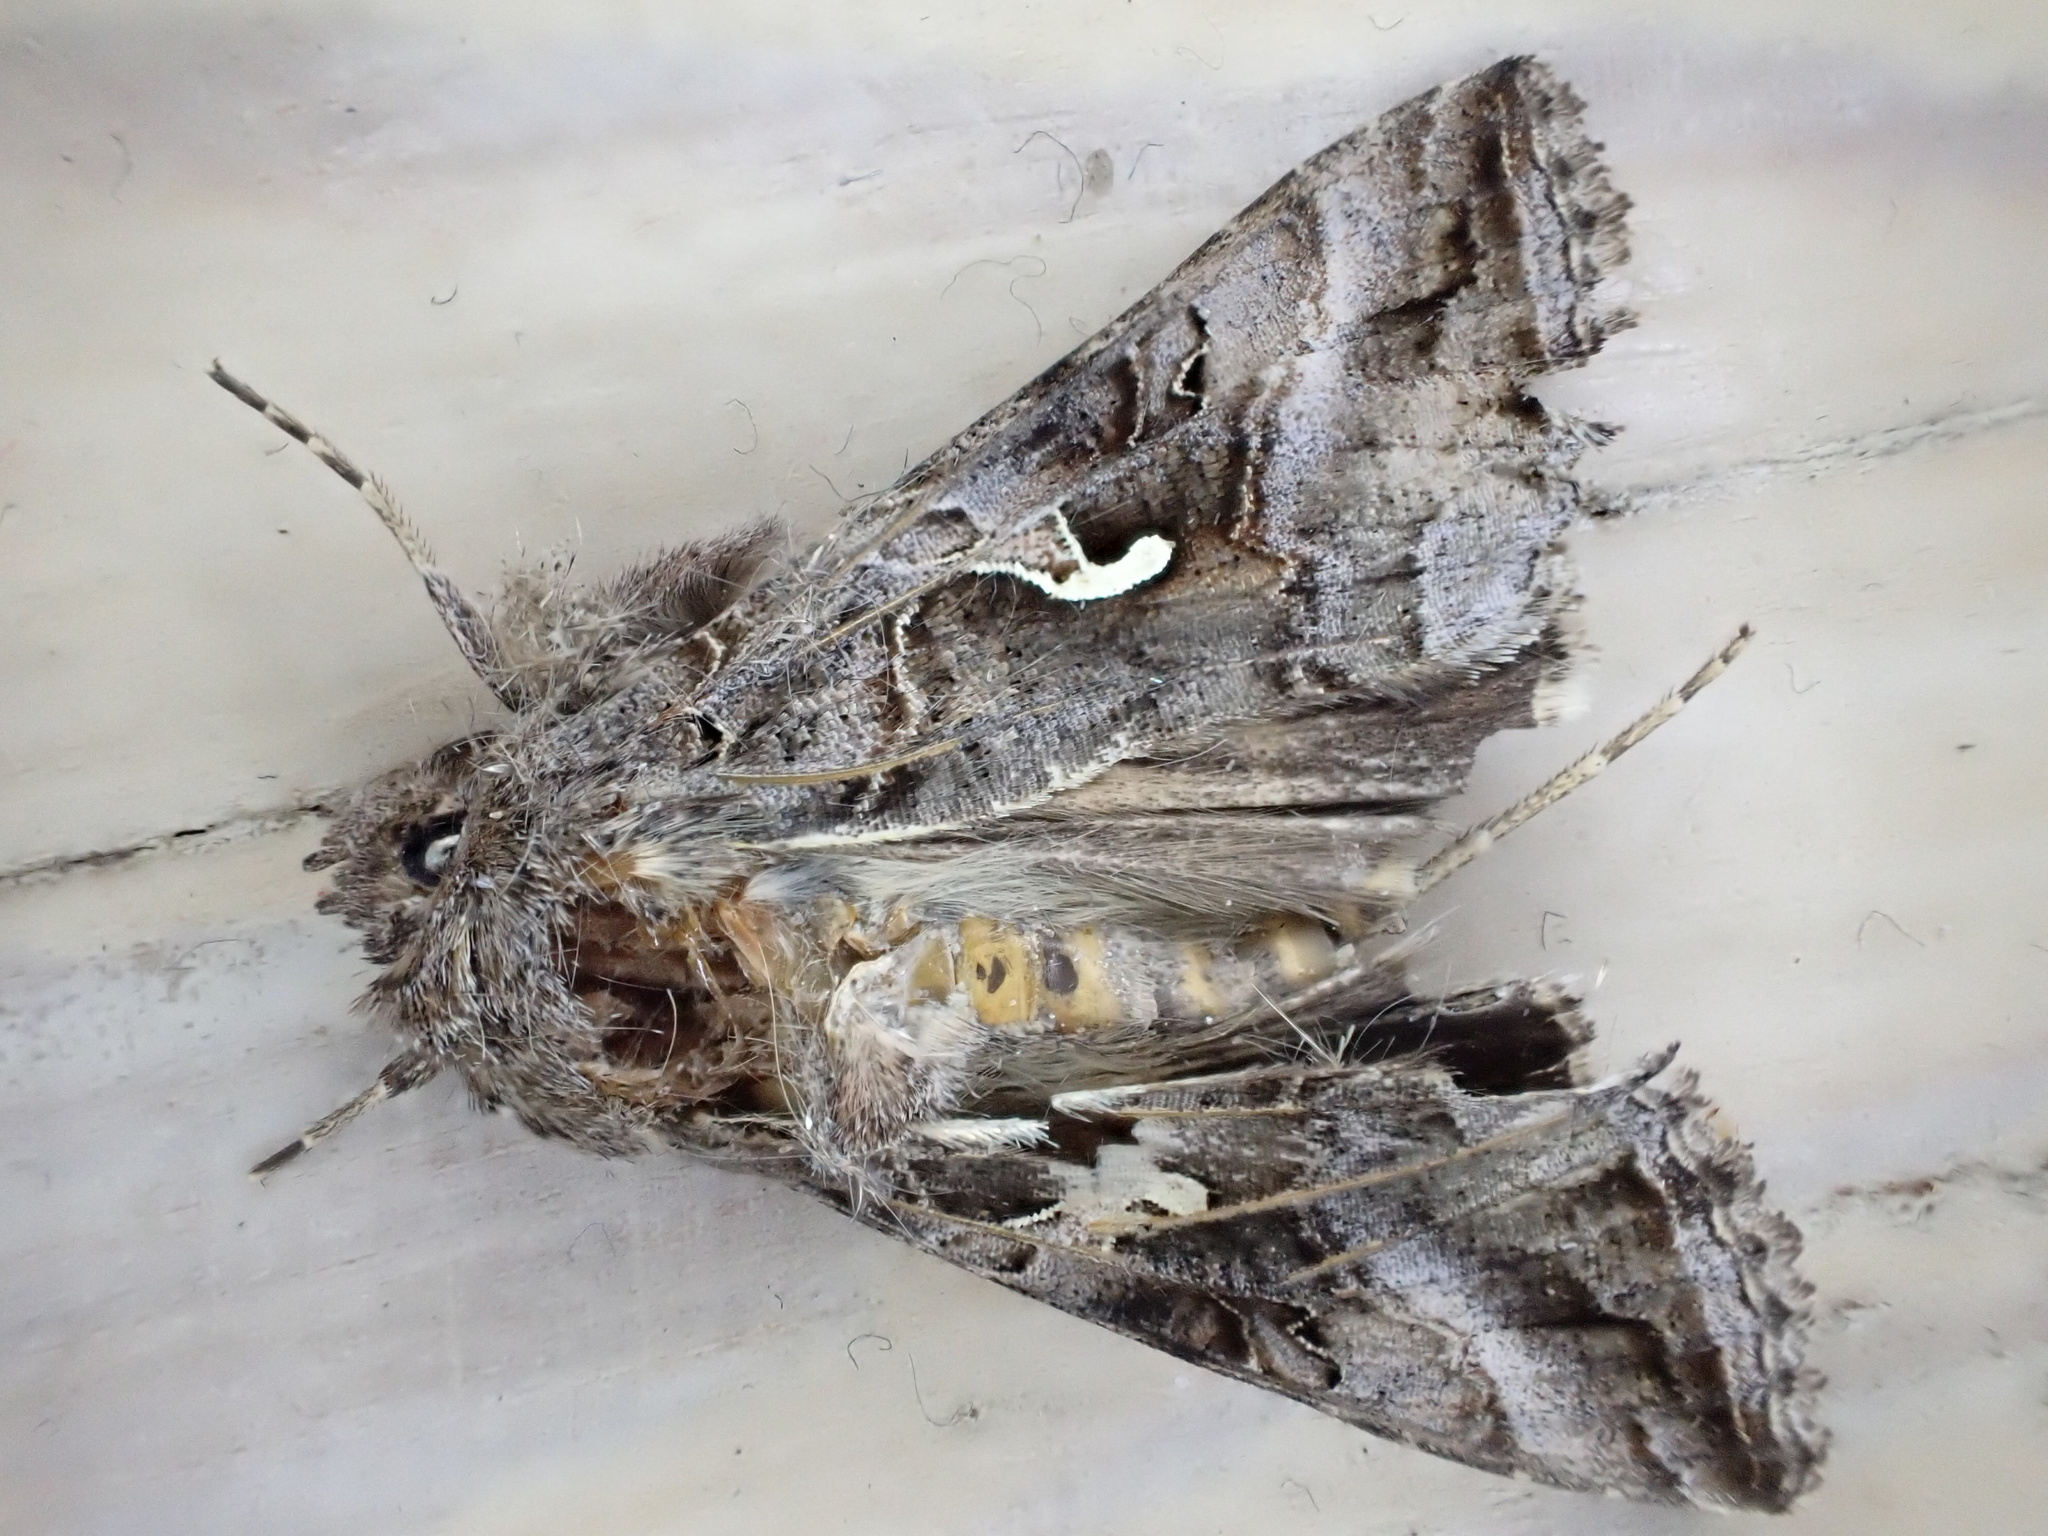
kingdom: Animalia
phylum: Arthropoda
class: Insecta
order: Lepidoptera
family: Noctuidae
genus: Autographa
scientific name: Autographa gamma
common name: Silver y
